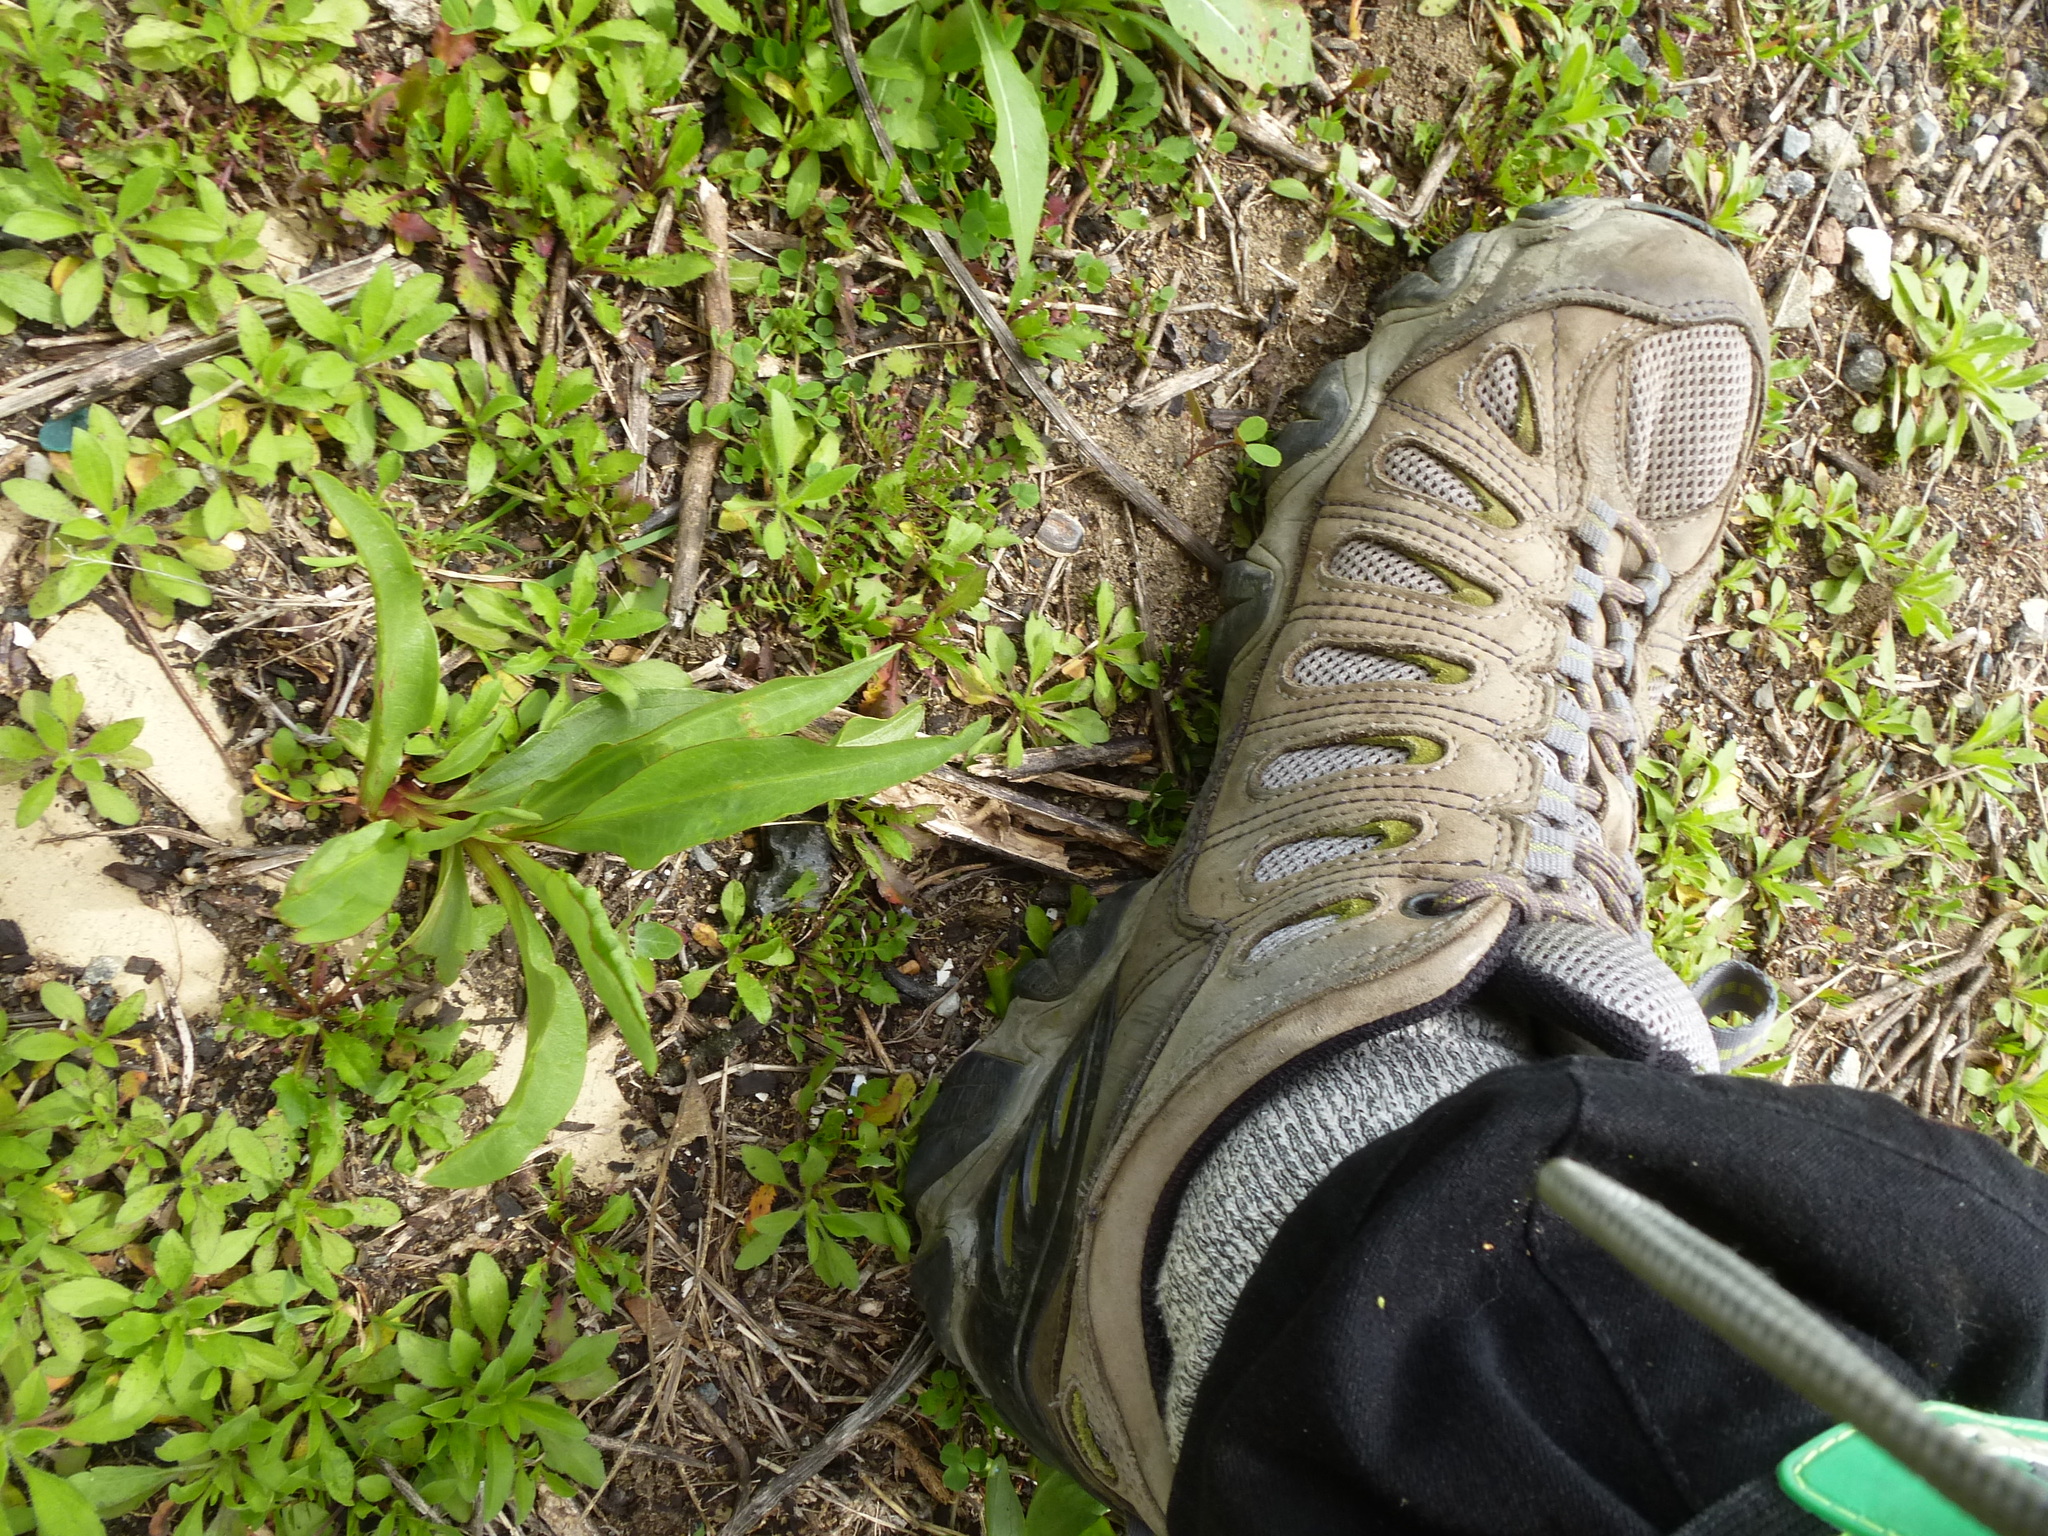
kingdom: Plantae
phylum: Tracheophyta
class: Magnoliopsida
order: Asterales
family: Asteraceae
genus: Solidago
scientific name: Solidago sempervirens
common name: Salt-marsh goldenrod
